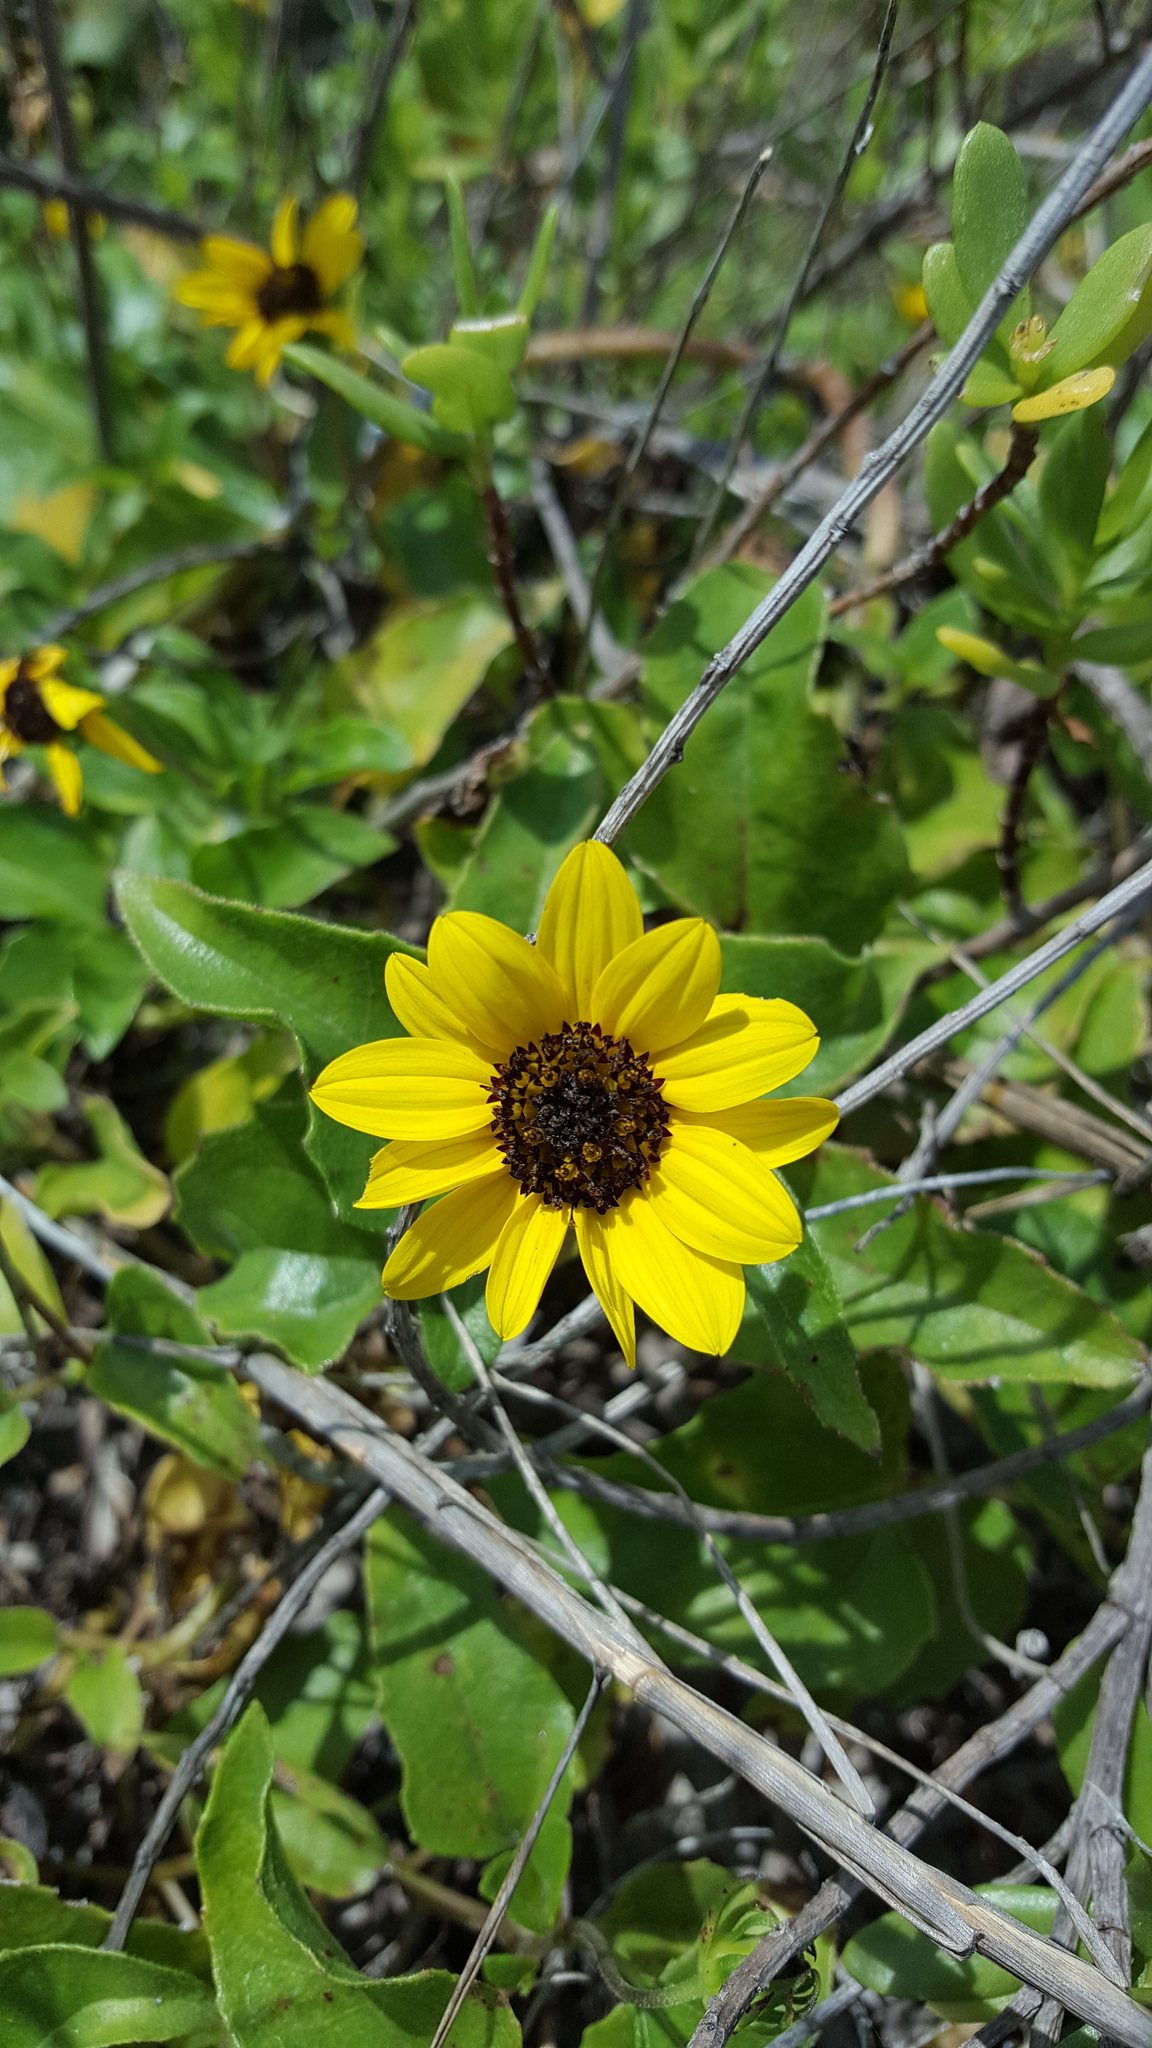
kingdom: Plantae
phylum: Tracheophyta
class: Magnoliopsida
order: Asterales
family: Asteraceae
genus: Helianthus
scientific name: Helianthus debilis
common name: Weak sunflower
